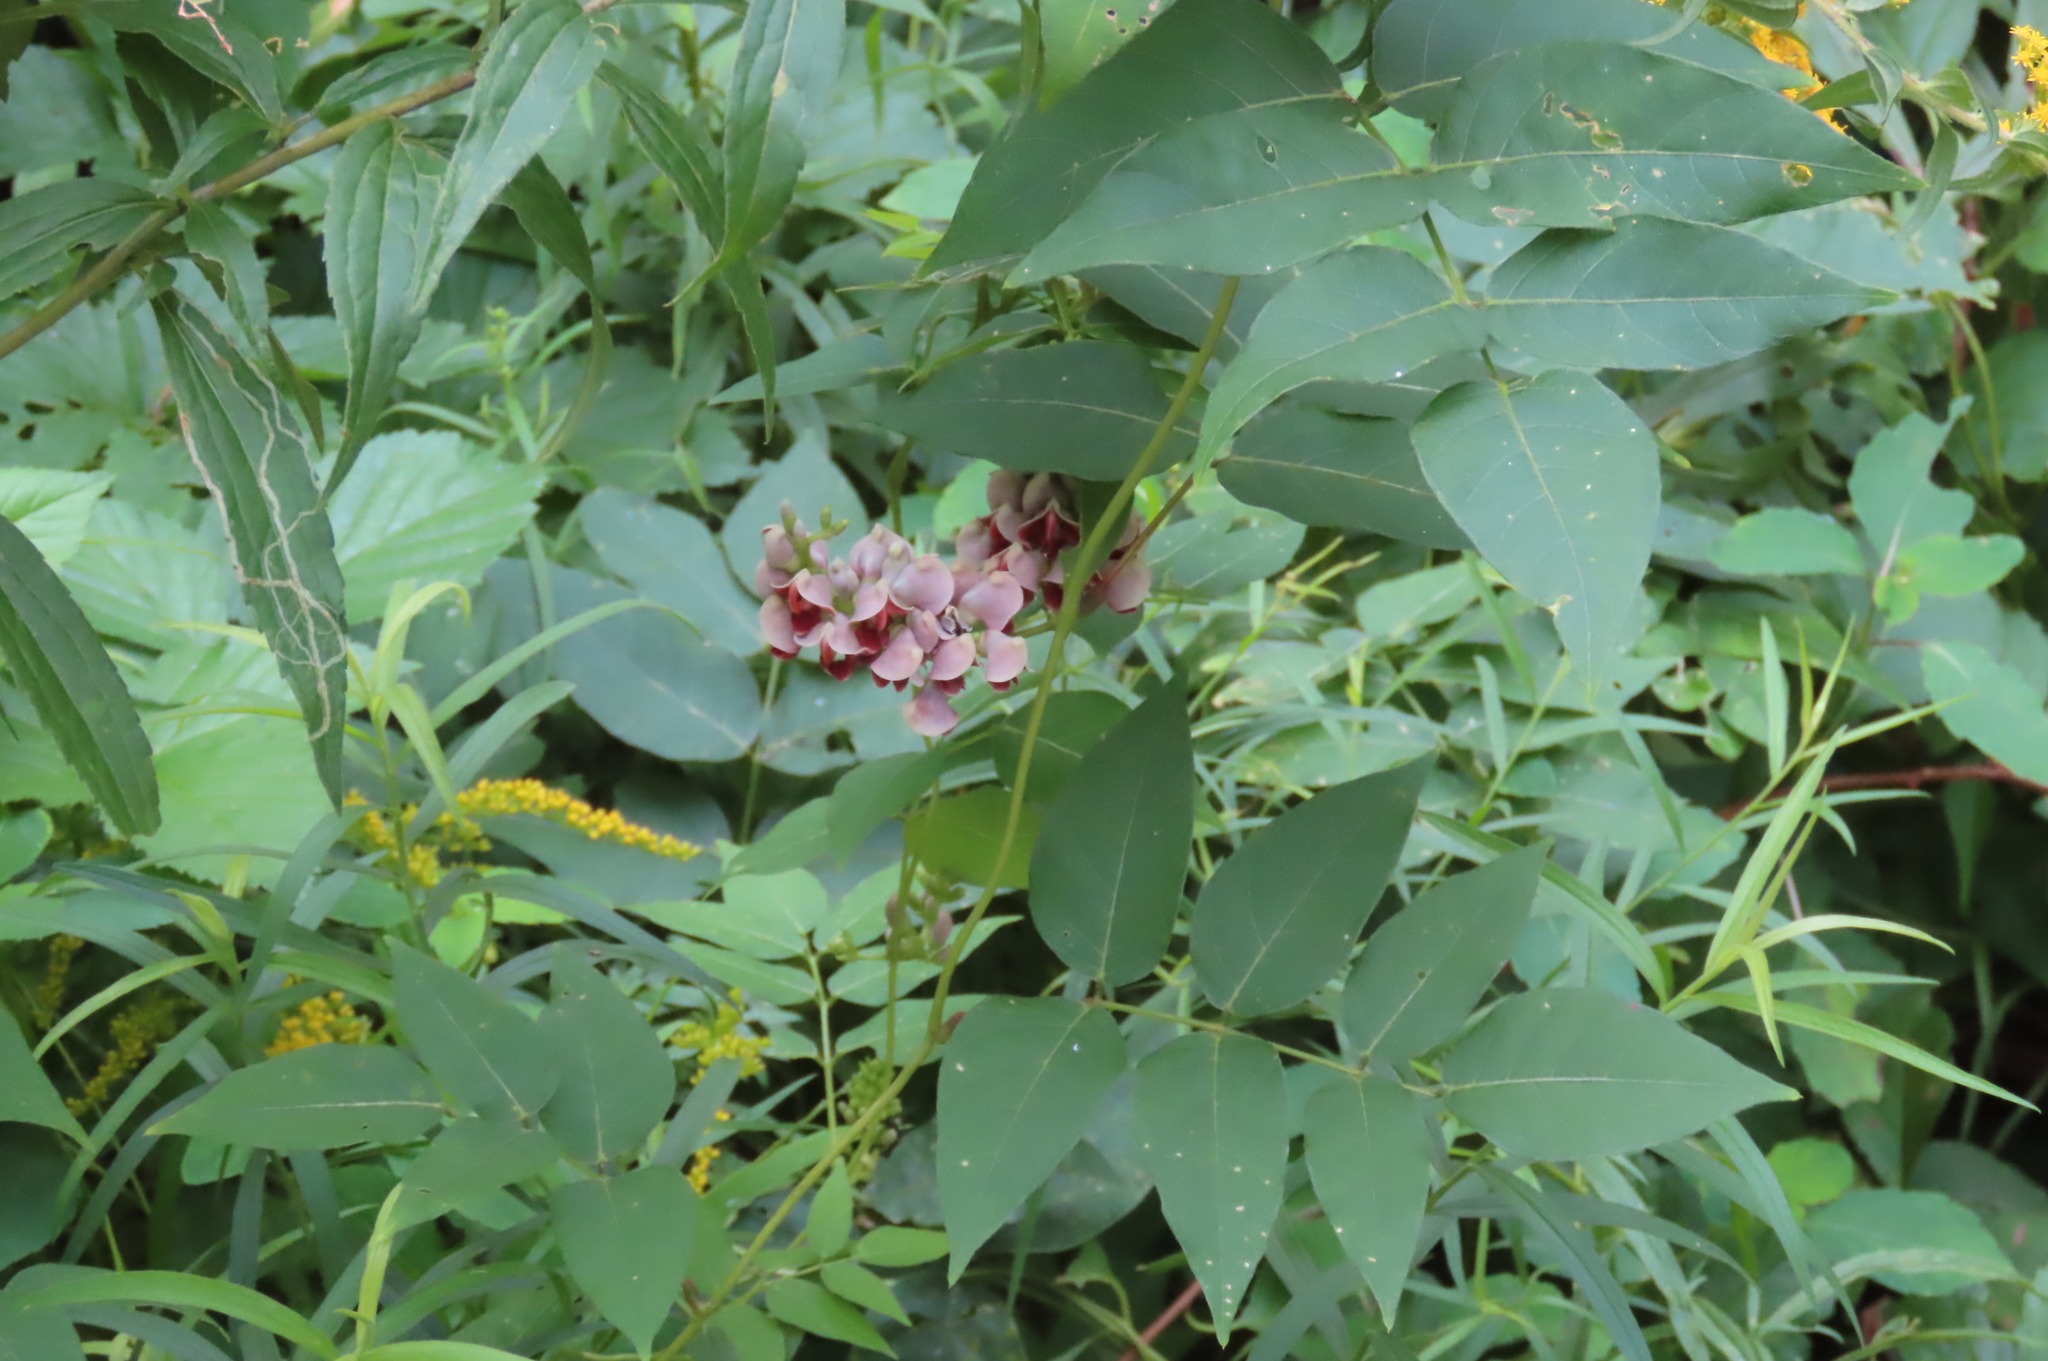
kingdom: Plantae
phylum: Tracheophyta
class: Magnoliopsida
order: Fabales
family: Fabaceae
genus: Apios
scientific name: Apios americana
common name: American potato-bean
